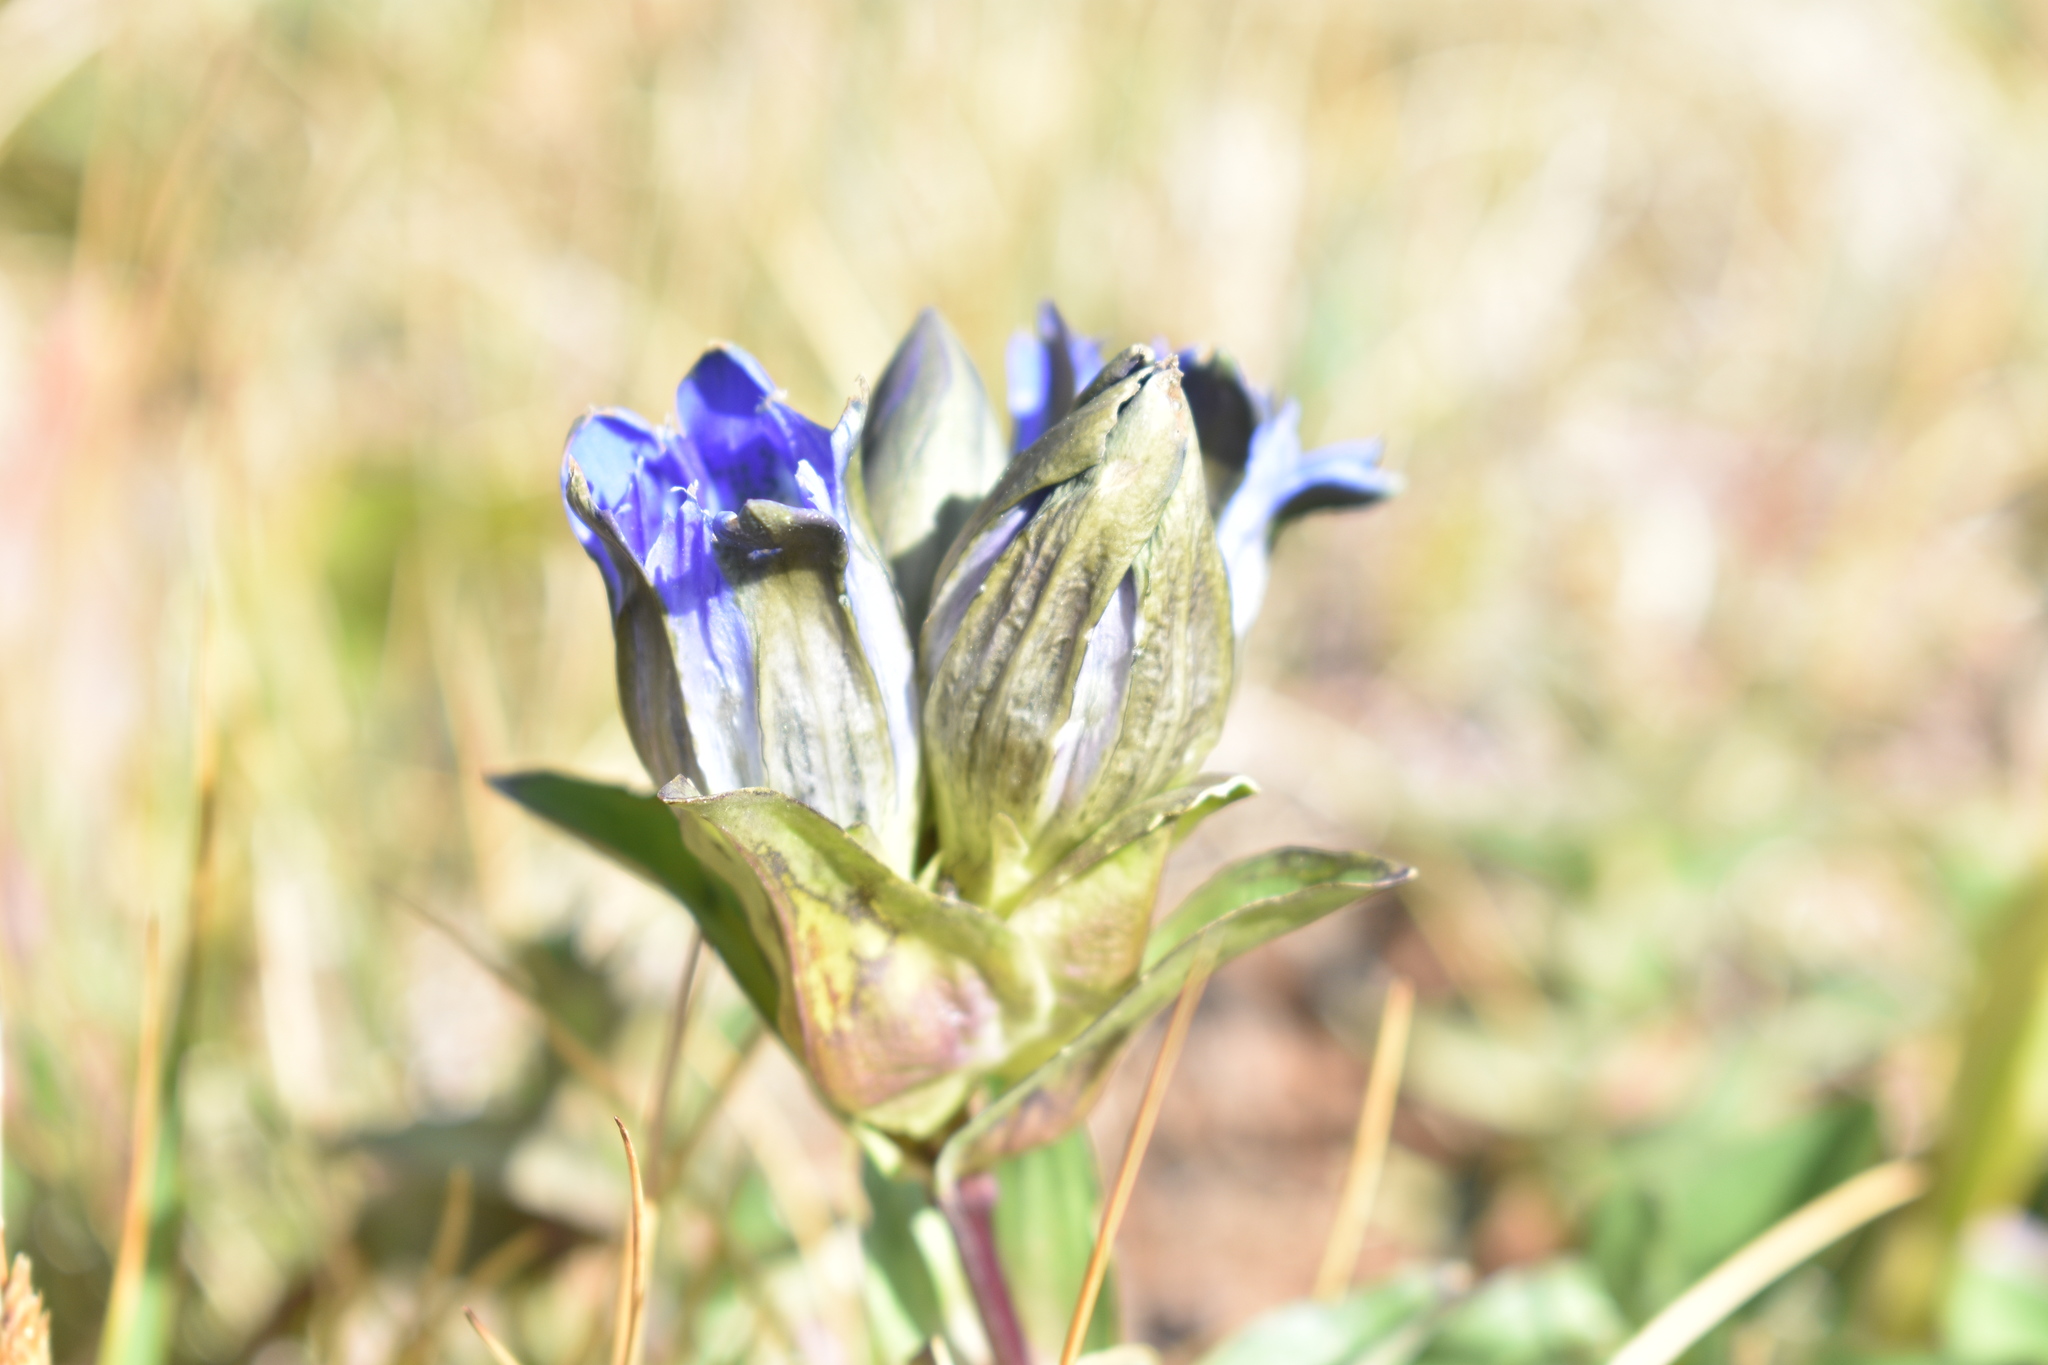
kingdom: Plantae
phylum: Tracheophyta
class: Magnoliopsida
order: Gentianales
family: Gentianaceae
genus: Gentiana
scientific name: Gentiana parryi
